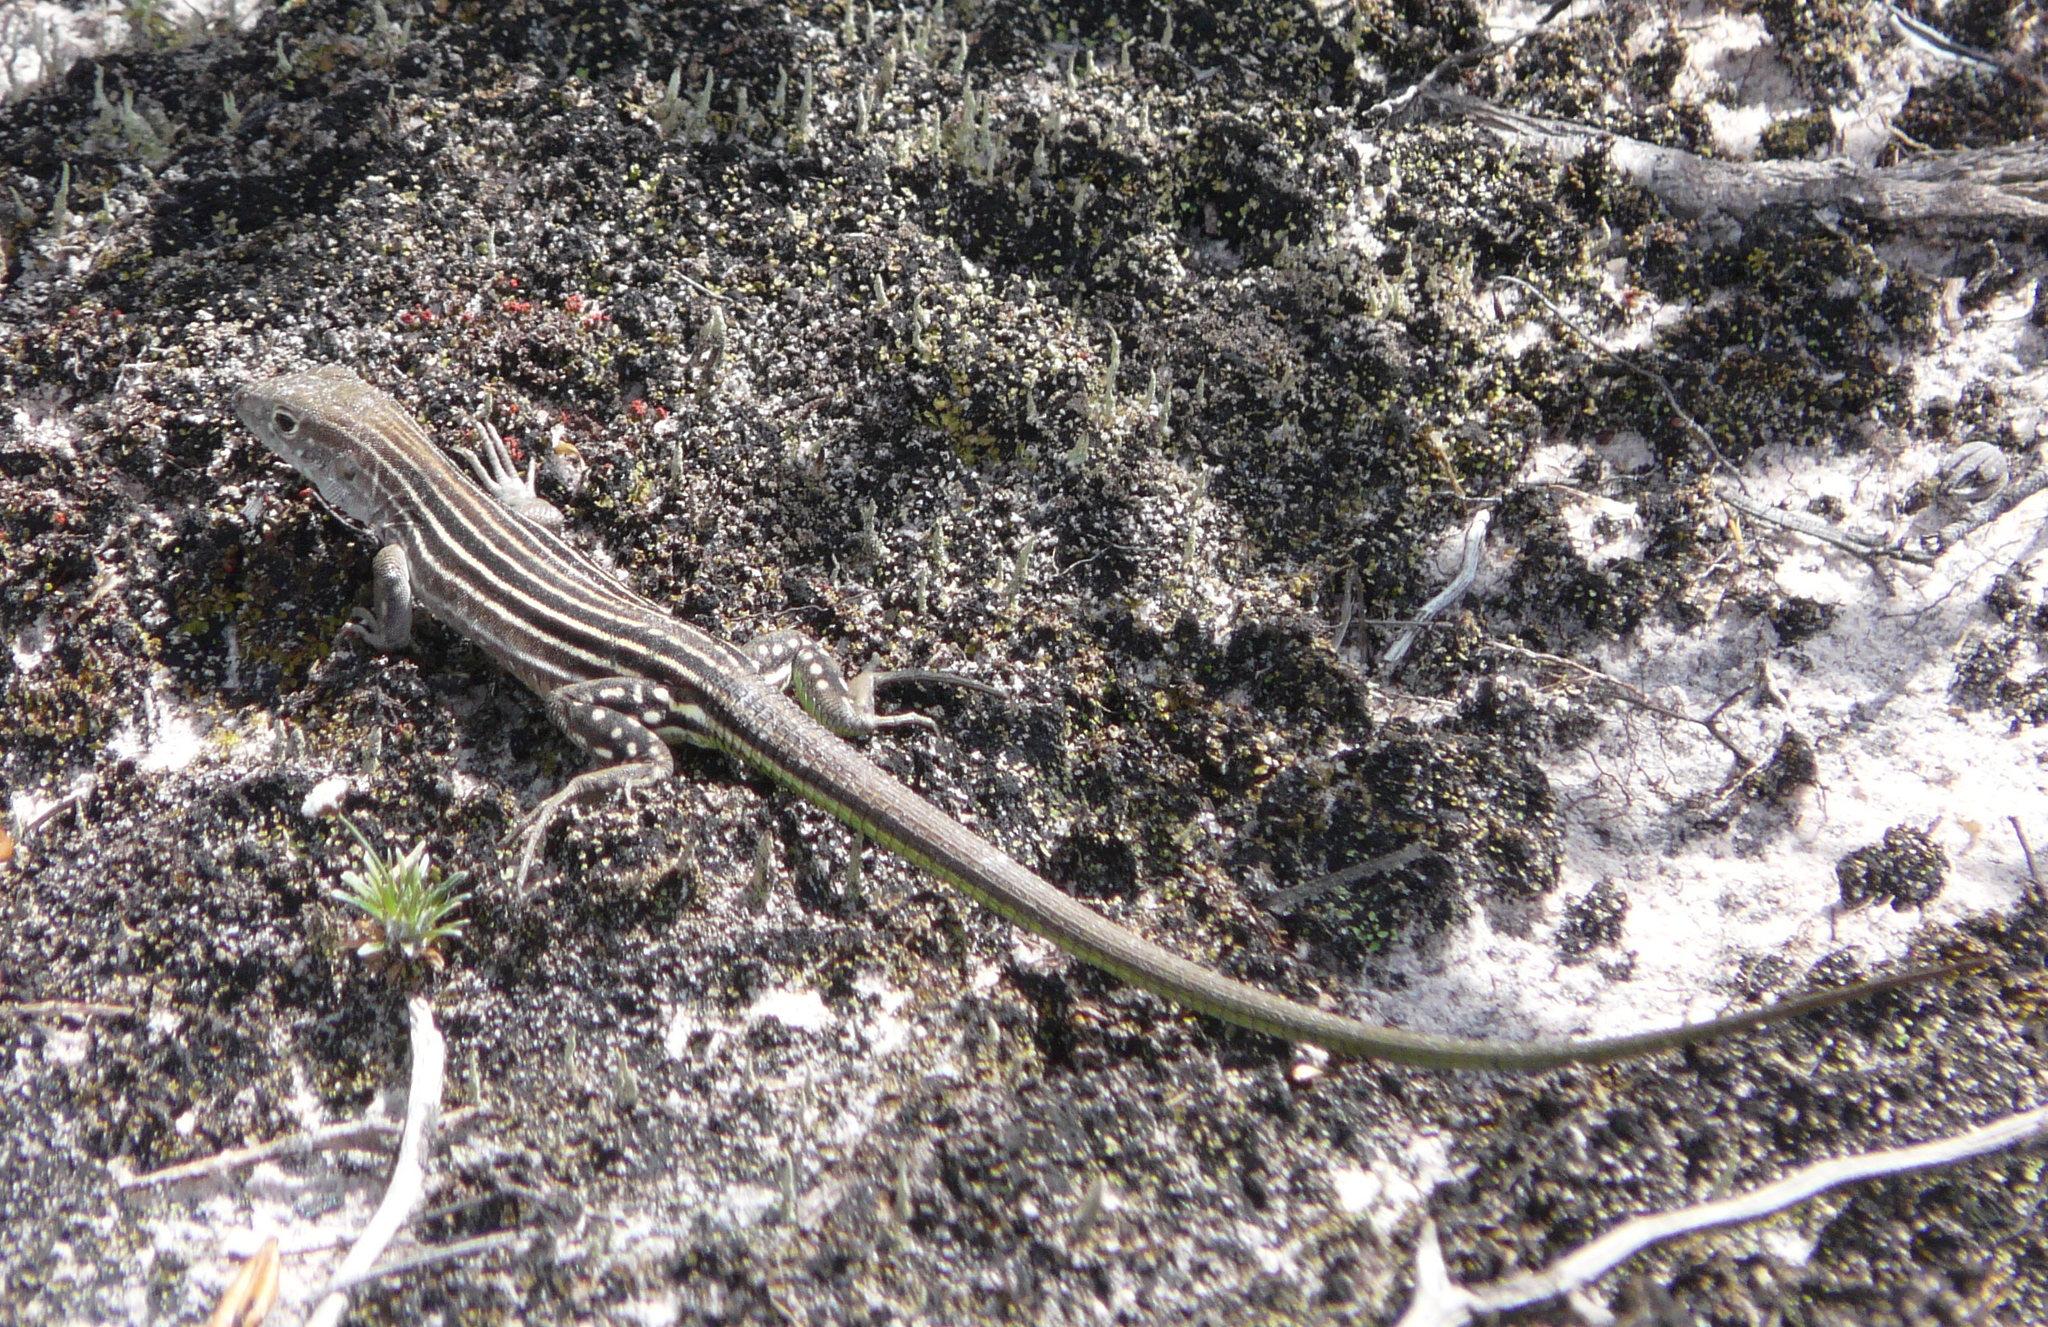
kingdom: Animalia
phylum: Chordata
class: Squamata
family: Teiidae
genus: Cnemidophorus
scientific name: Cnemidophorus lemniscatus
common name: Rainbow whiptail
